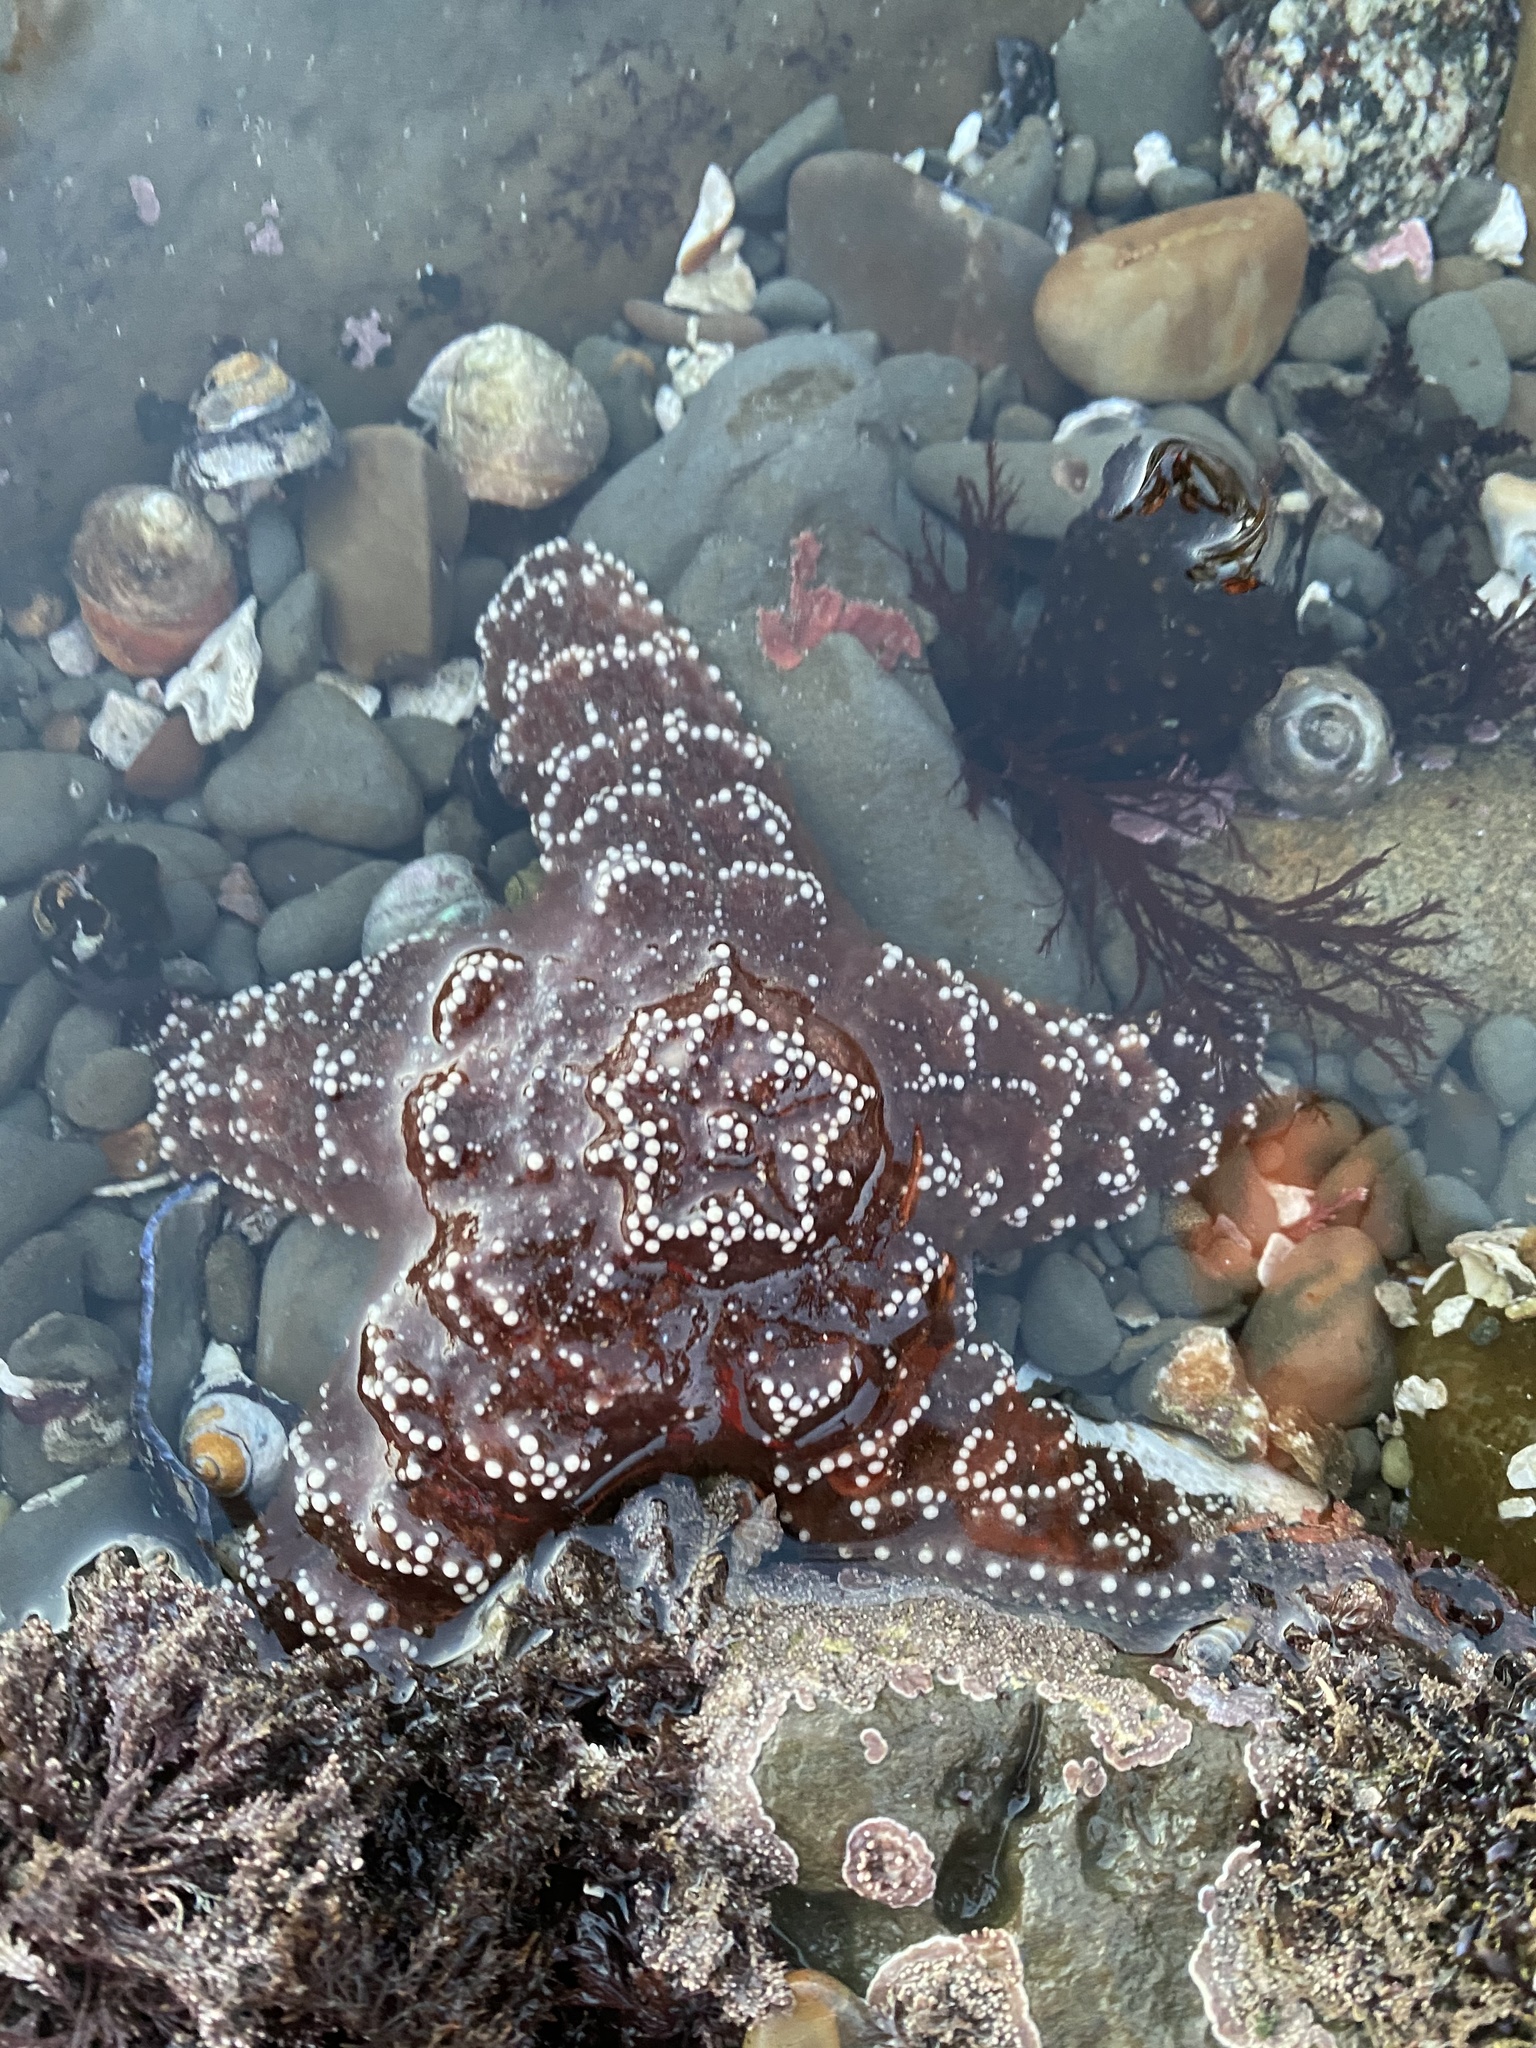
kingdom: Animalia
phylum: Echinodermata
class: Asteroidea
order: Forcipulatida
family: Asteriidae
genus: Pisaster
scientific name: Pisaster ochraceus
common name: Ochre stars
